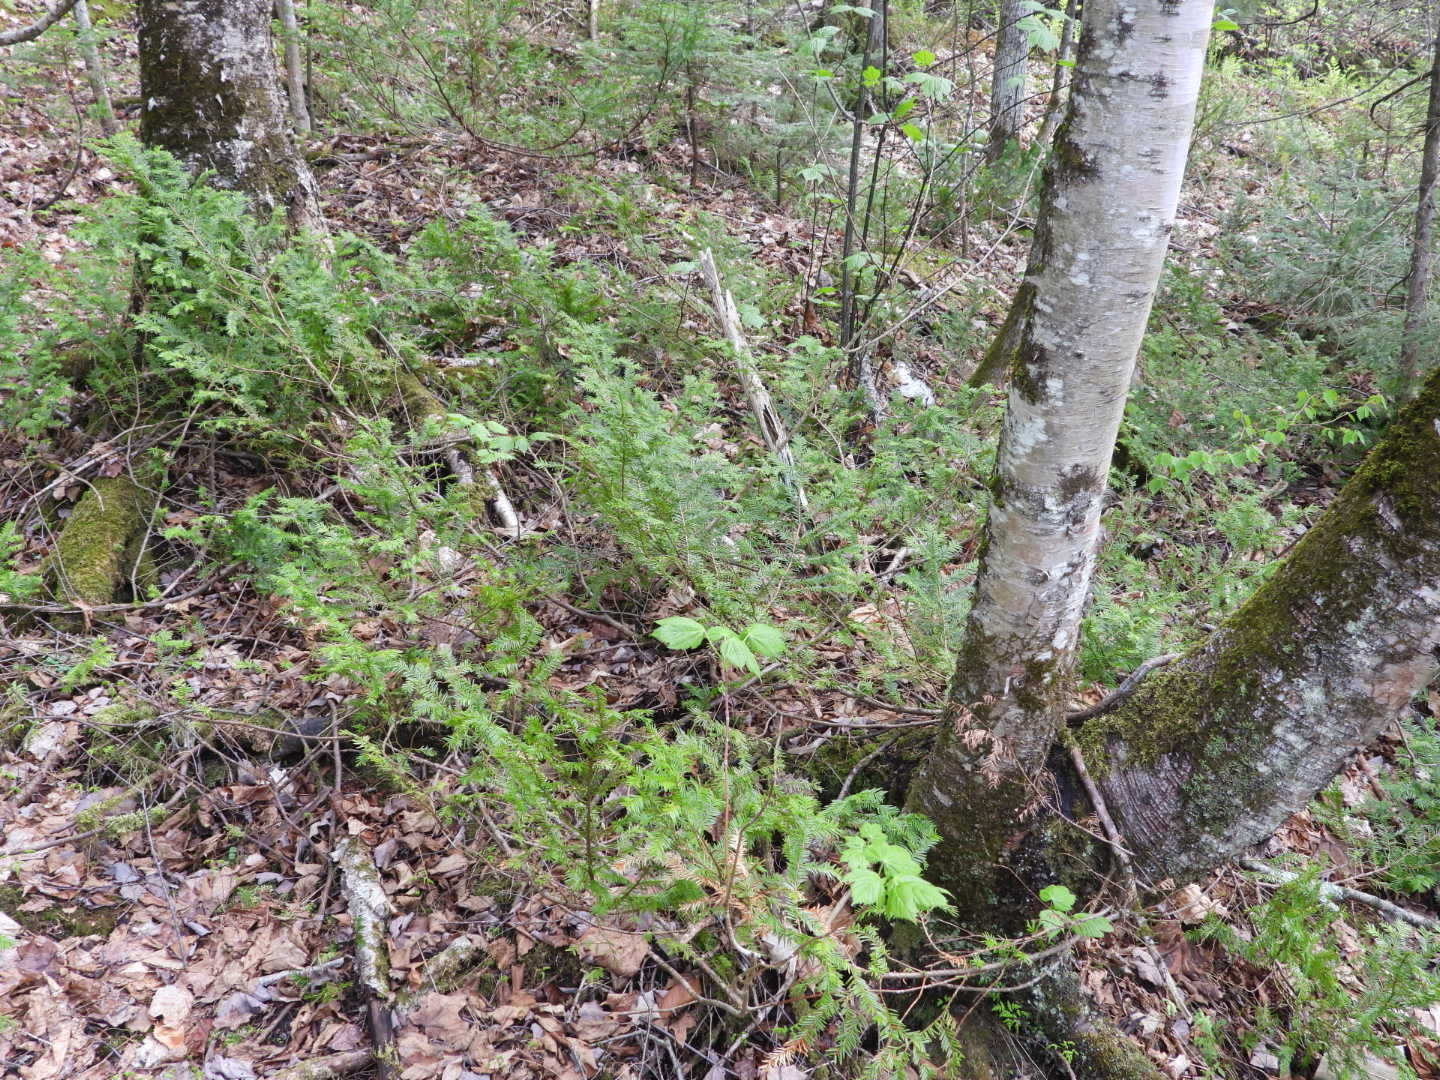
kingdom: Plantae
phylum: Tracheophyta
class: Pinopsida
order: Pinales
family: Taxaceae
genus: Taxus
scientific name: Taxus canadensis
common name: American yew
